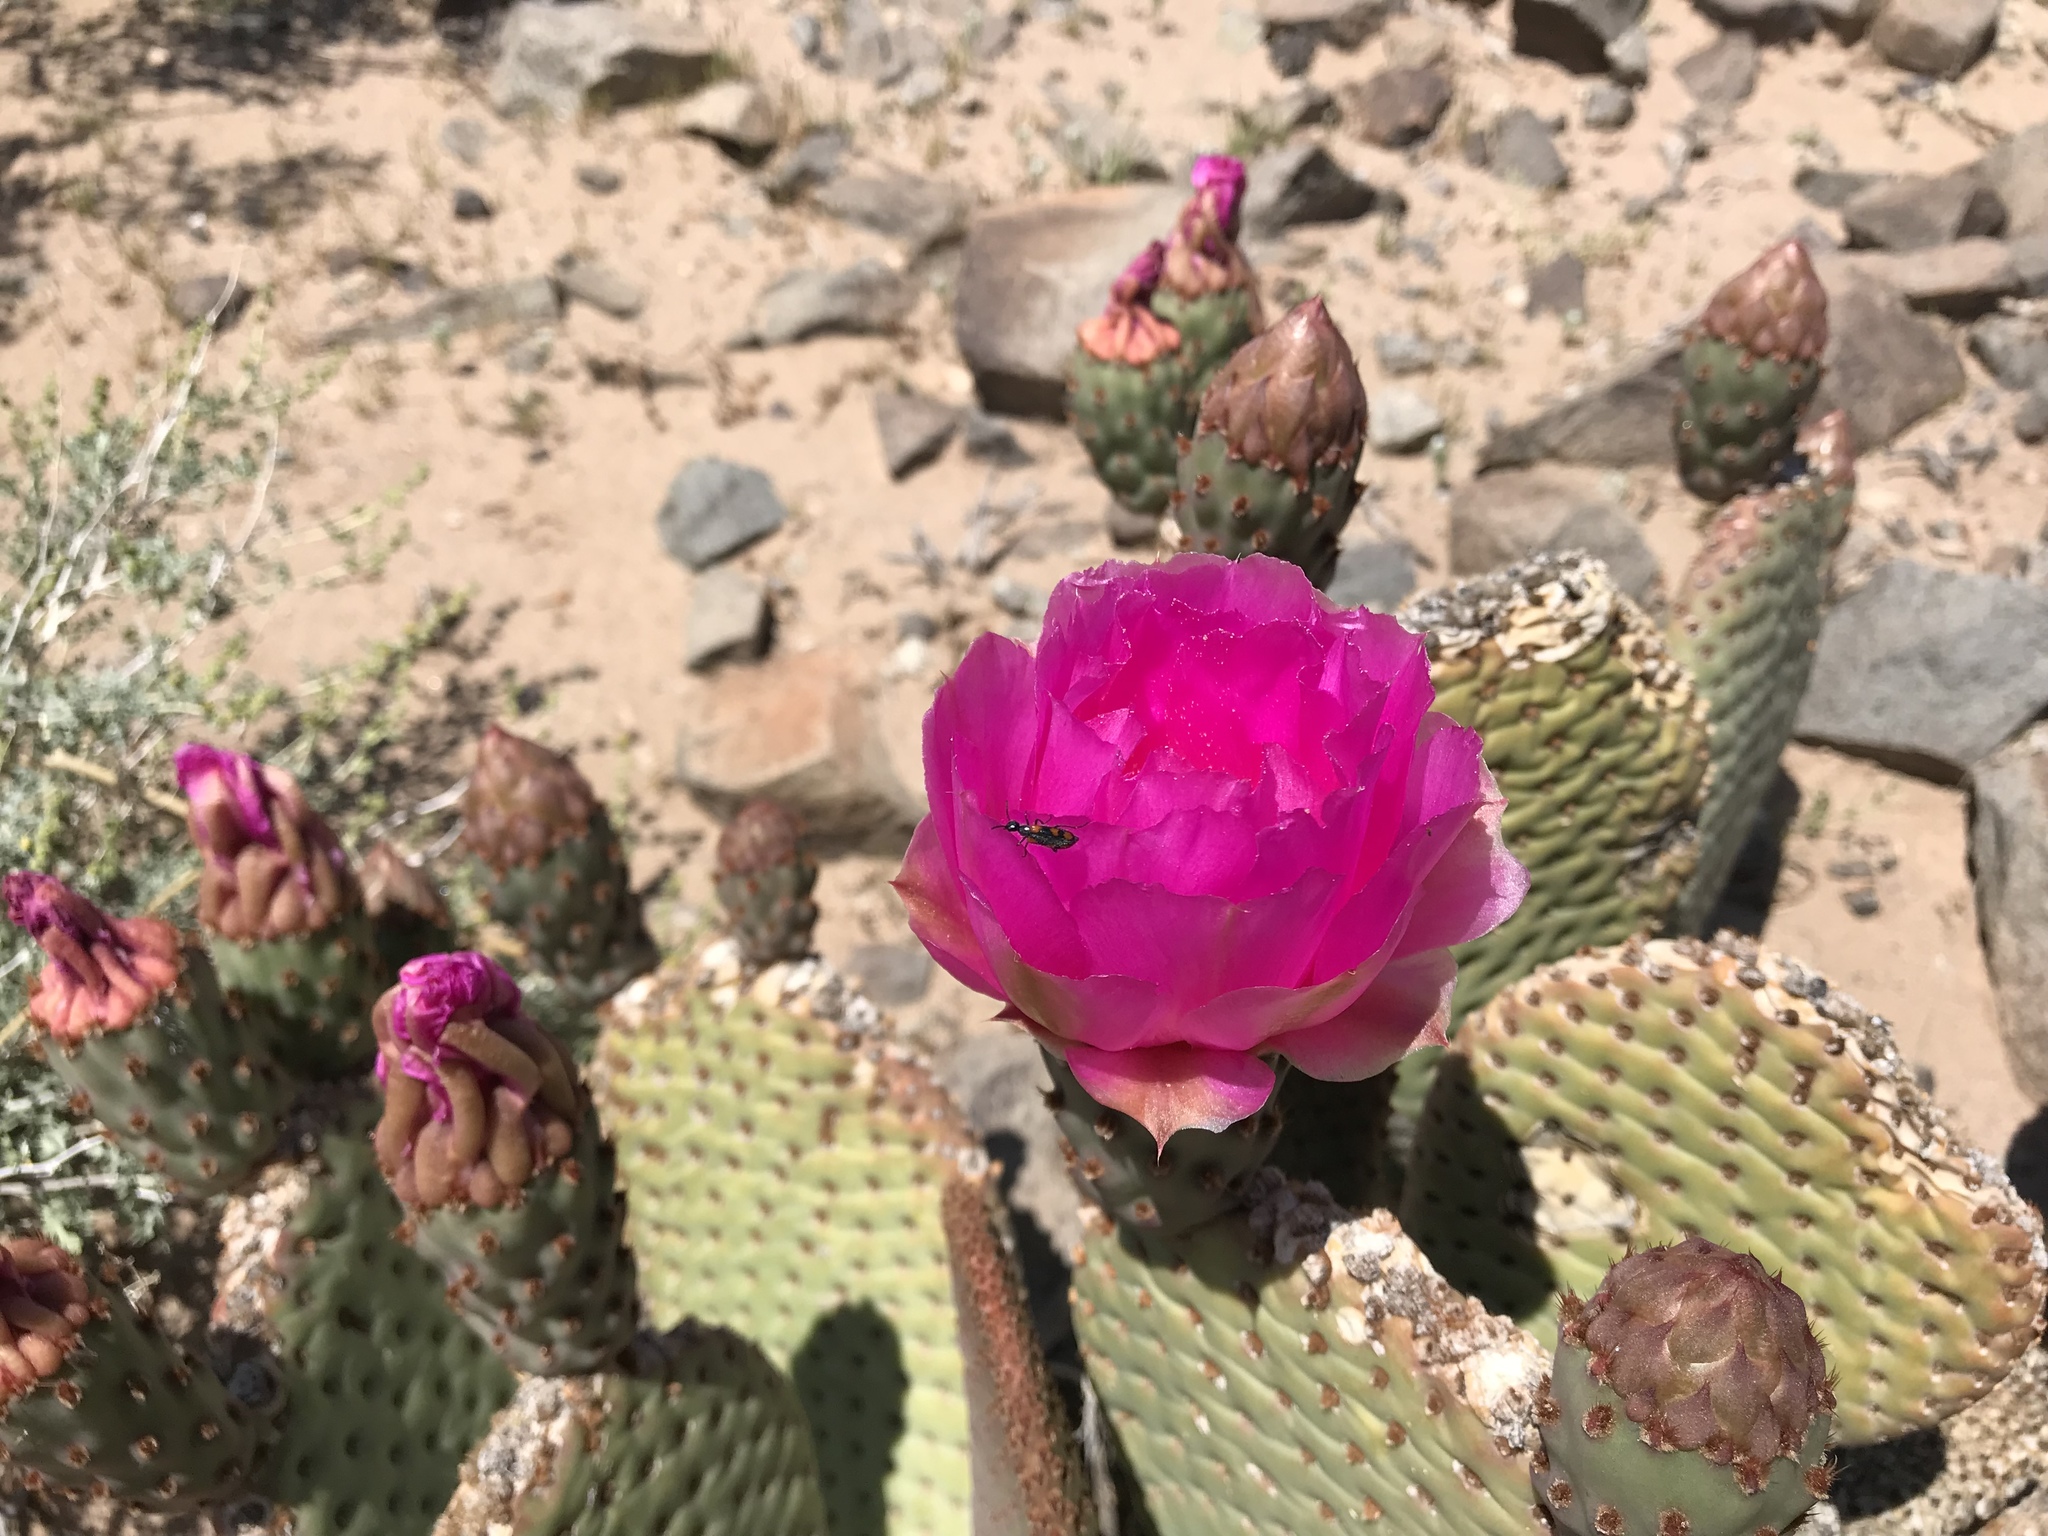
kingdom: Plantae
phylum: Tracheophyta
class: Magnoliopsida
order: Caryophyllales
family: Cactaceae
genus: Opuntia
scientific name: Opuntia basilaris
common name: Beavertail prickly-pear
